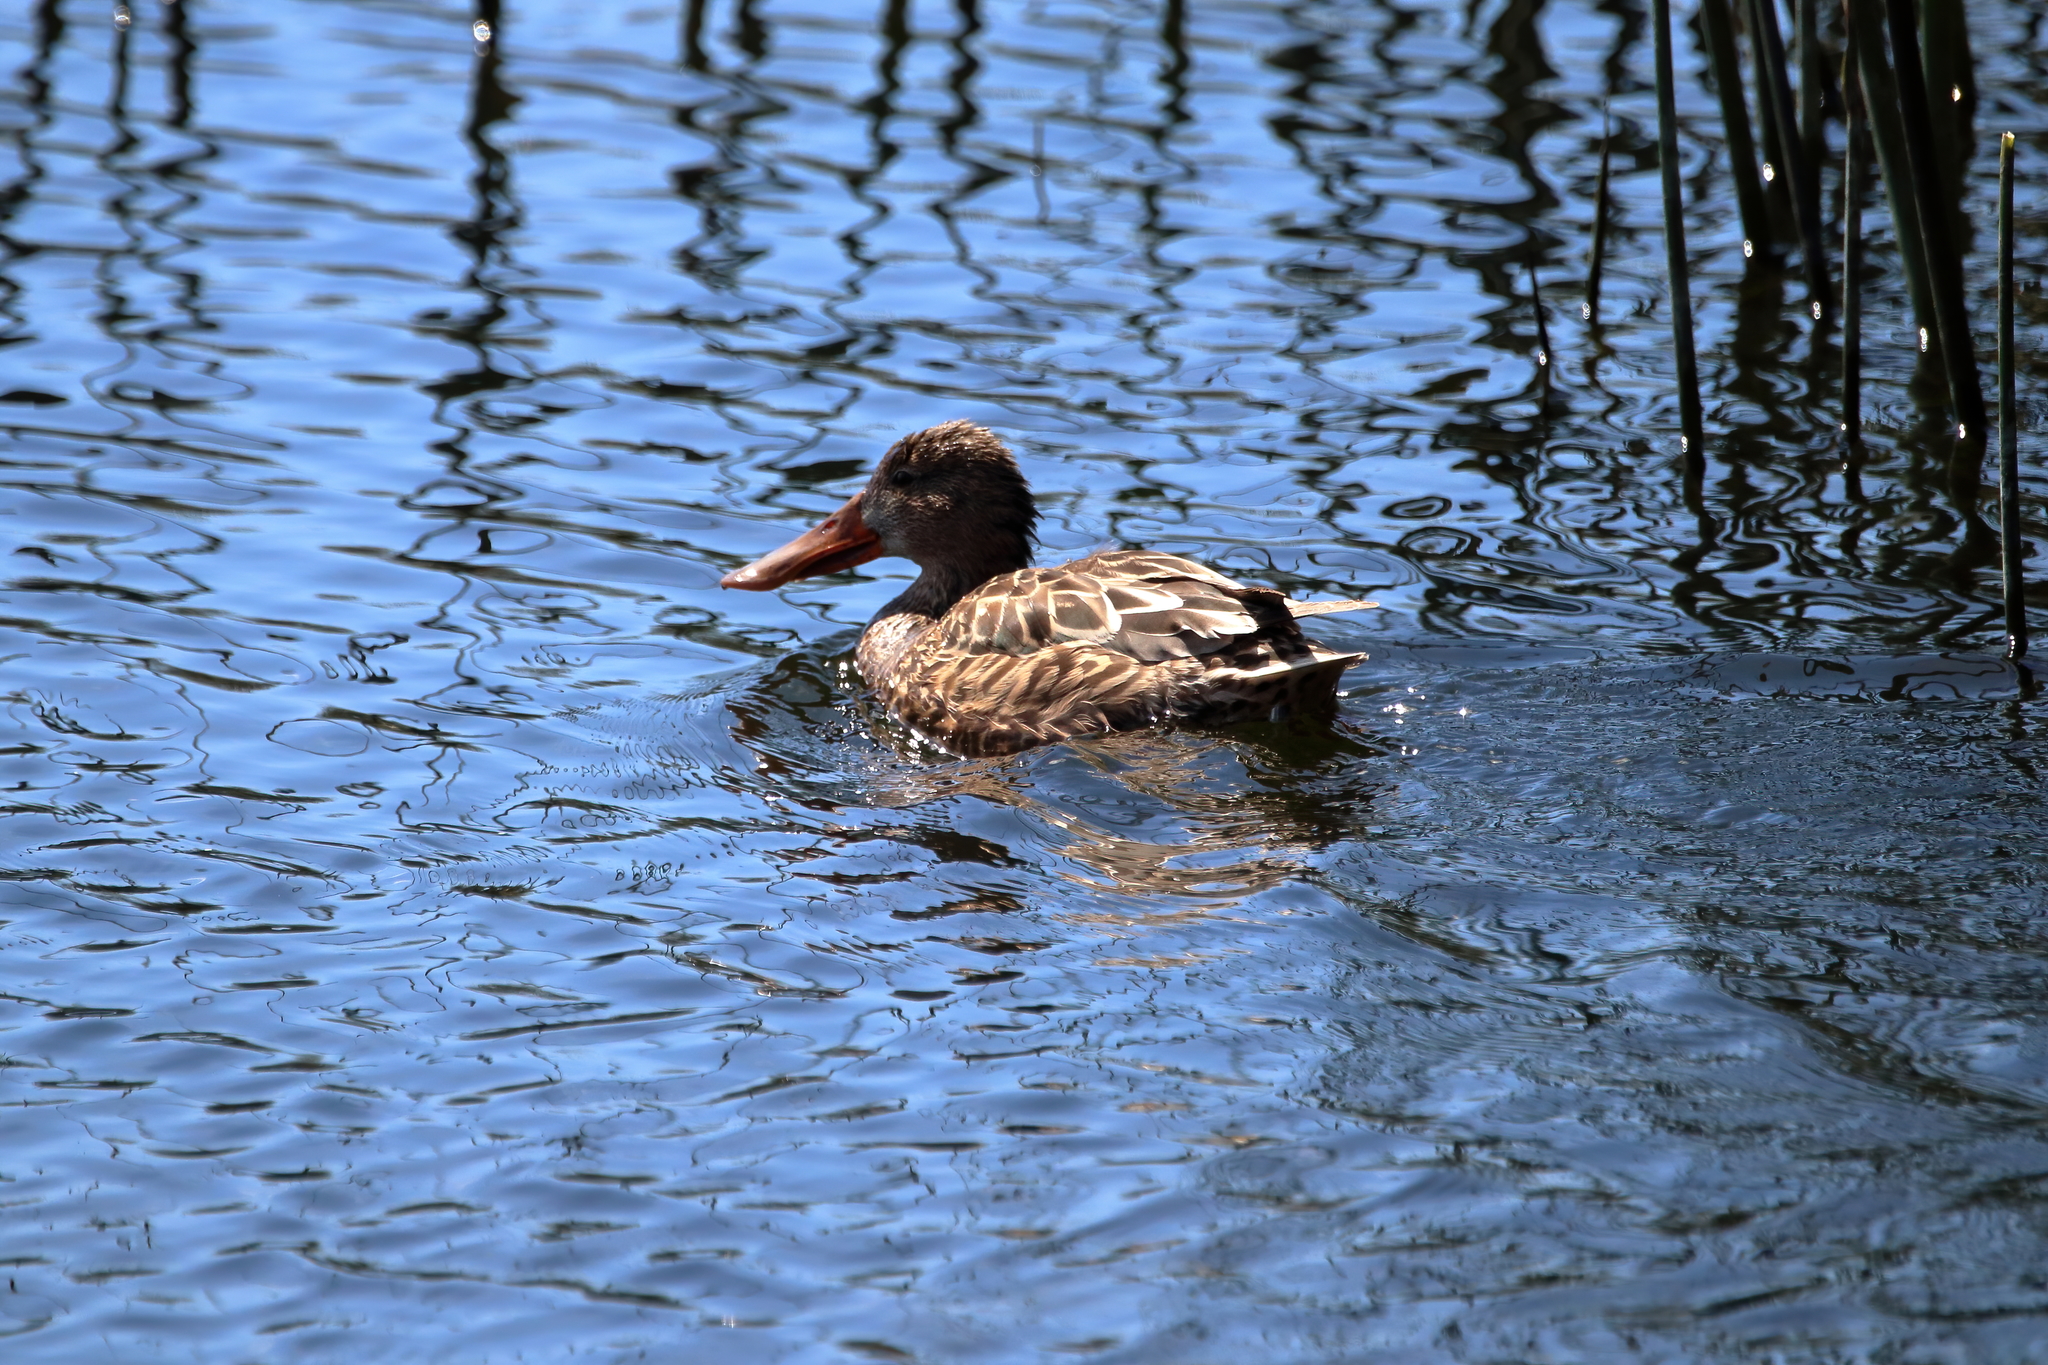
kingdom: Animalia
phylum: Chordata
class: Aves
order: Anseriformes
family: Anatidae
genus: Spatula
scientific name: Spatula clypeata
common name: Northern shoveler
